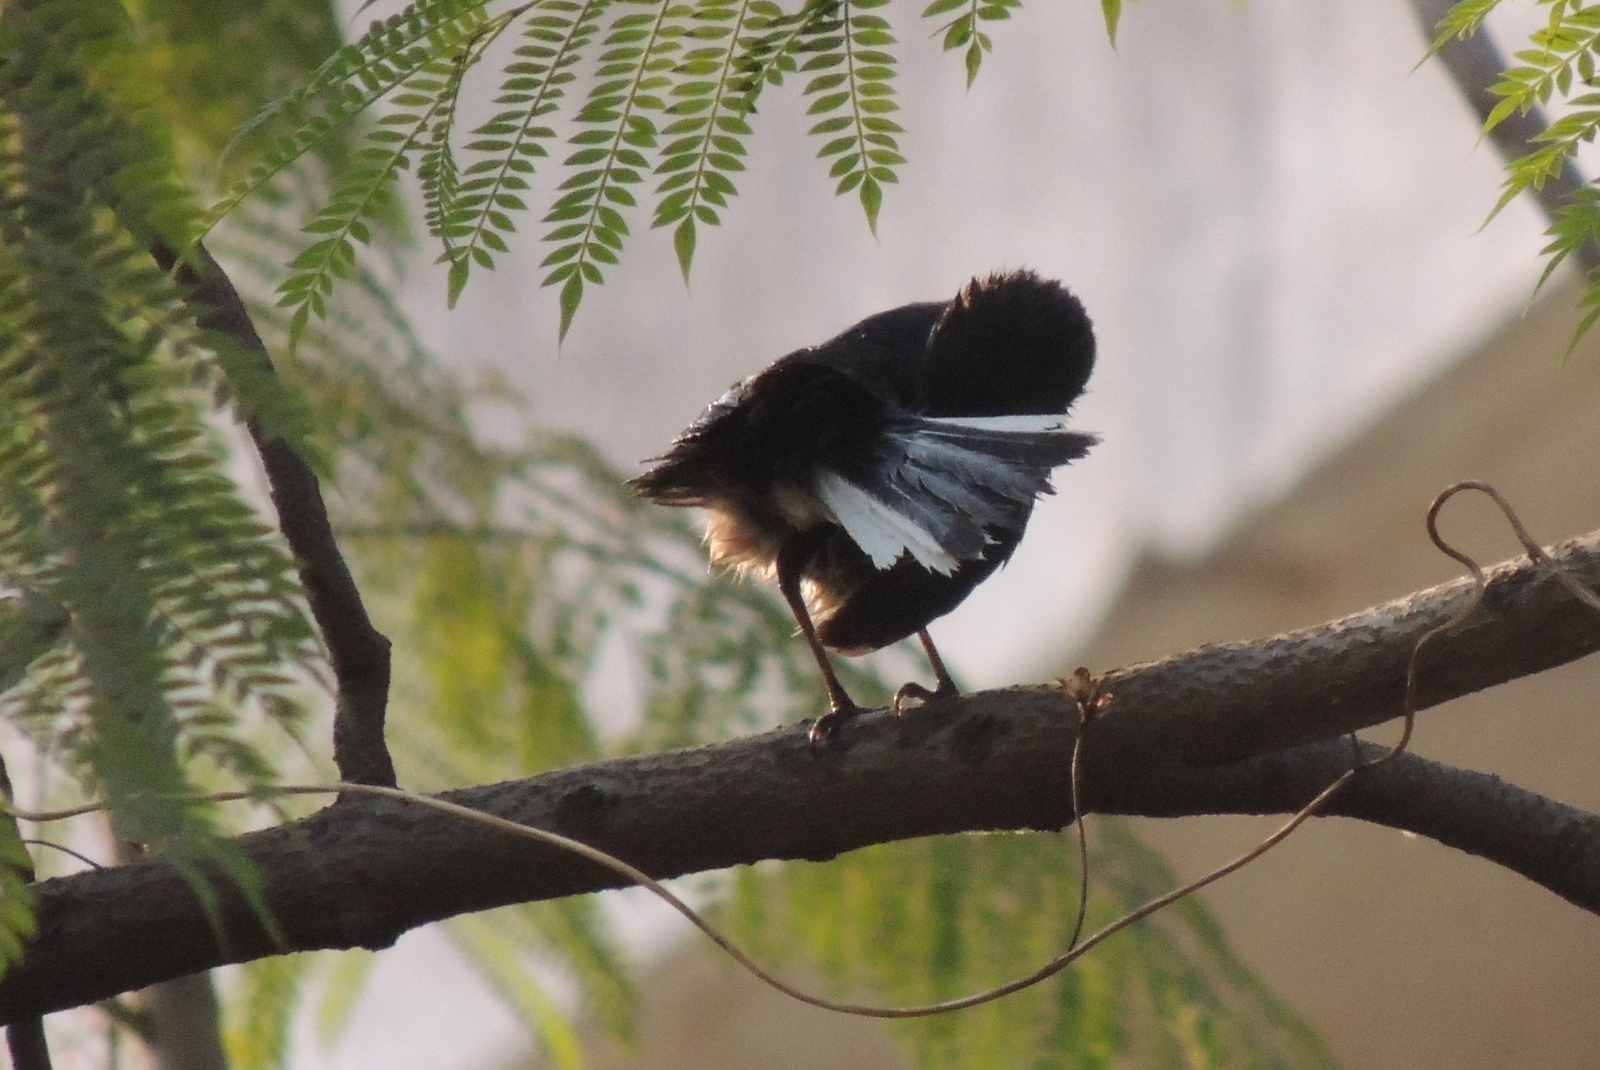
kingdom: Animalia
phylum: Chordata
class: Aves
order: Passeriformes
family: Muscicapidae
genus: Copsychus
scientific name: Copsychus saularis
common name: Oriental magpie-robin
